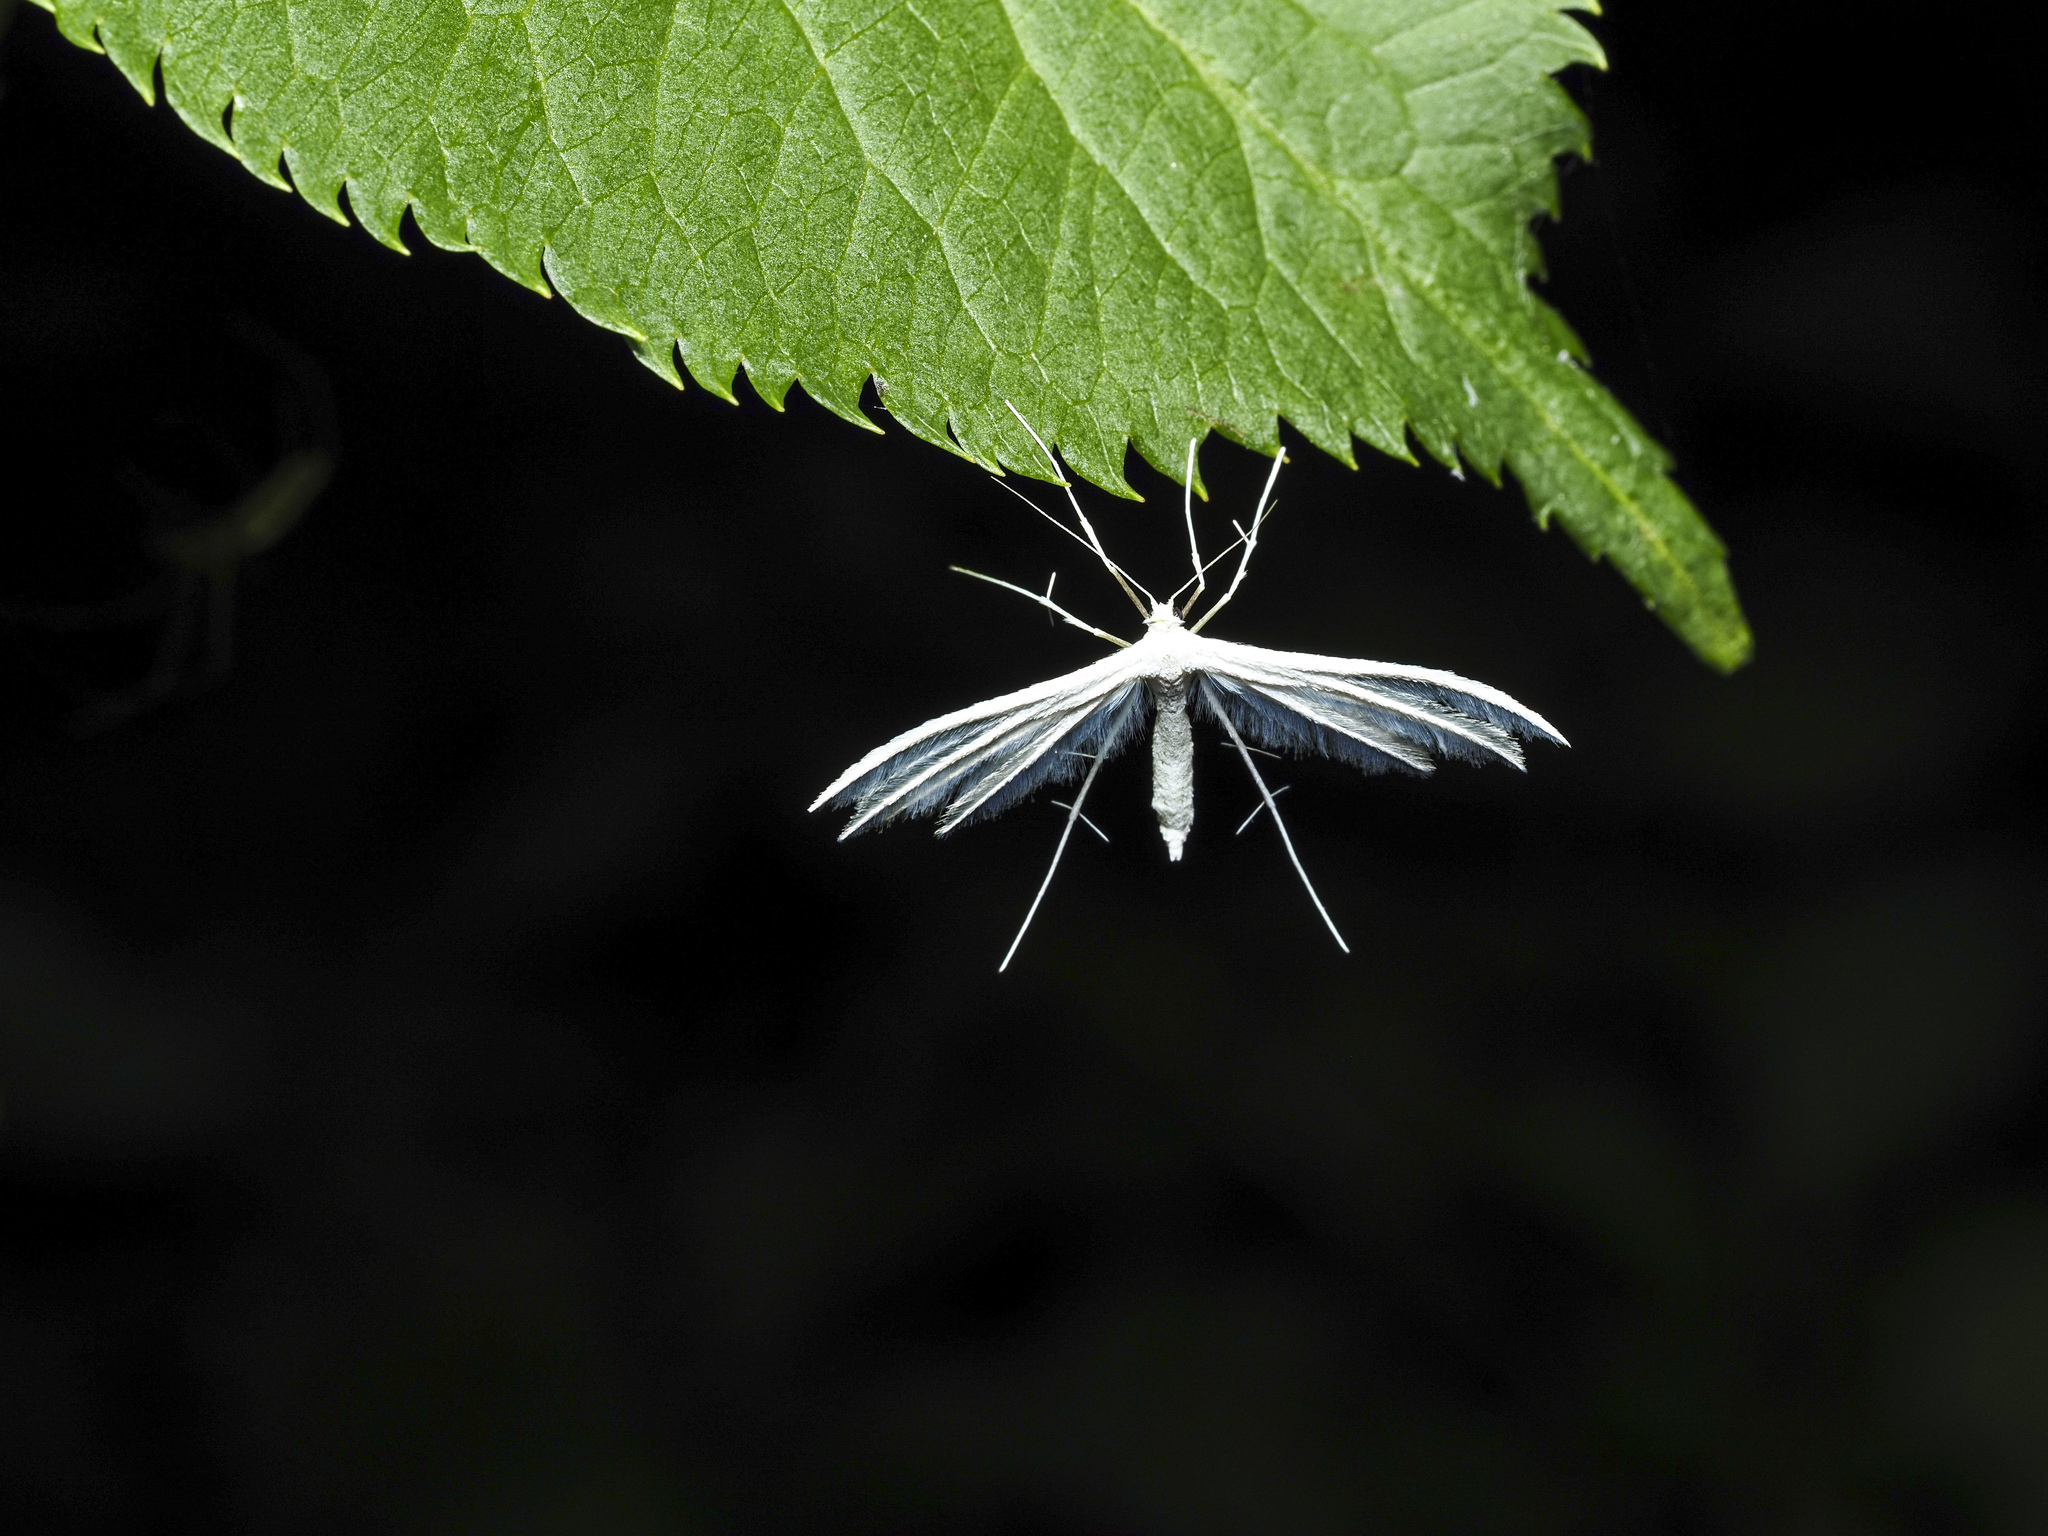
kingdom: Animalia
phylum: Arthropoda
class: Insecta
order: Lepidoptera
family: Pterophoridae
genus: Pterophorus
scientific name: Pterophorus pentadactyla
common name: White plume moth
